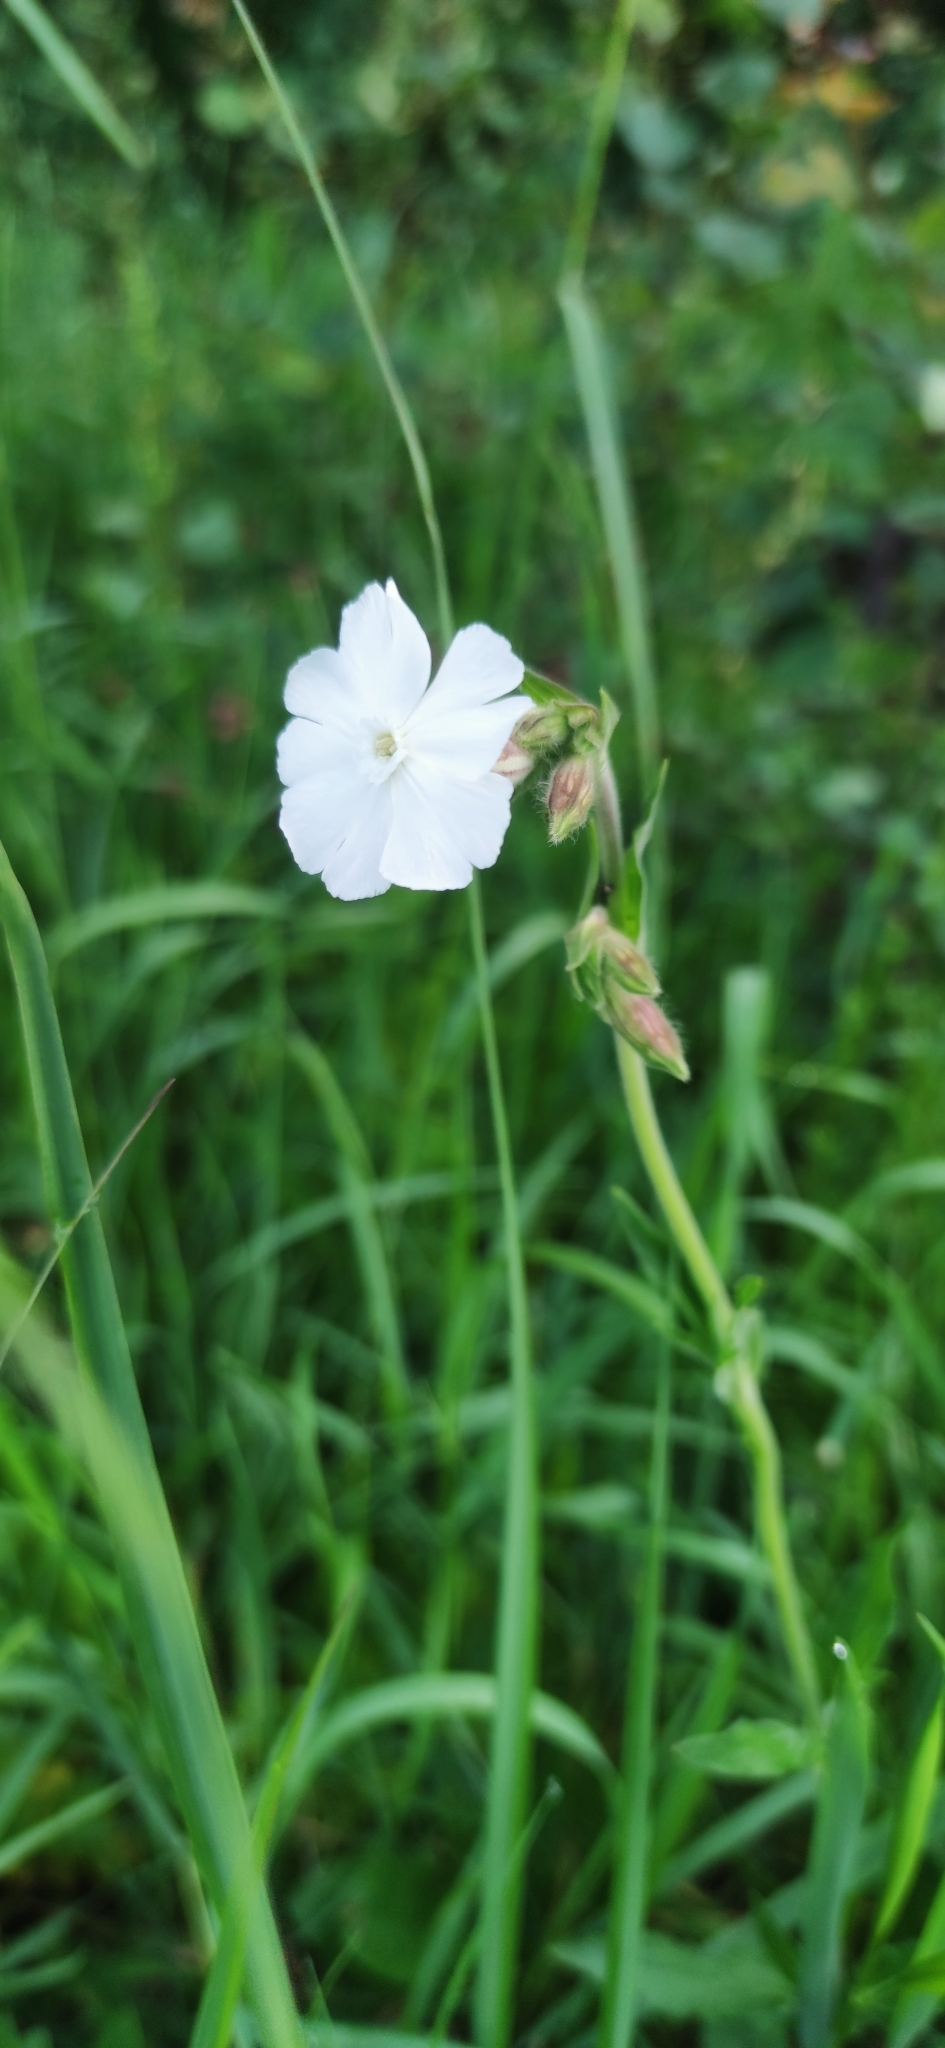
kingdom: Plantae
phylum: Tracheophyta
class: Magnoliopsida
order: Caryophyllales
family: Caryophyllaceae
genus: Silene
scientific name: Silene latifolia
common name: White campion
